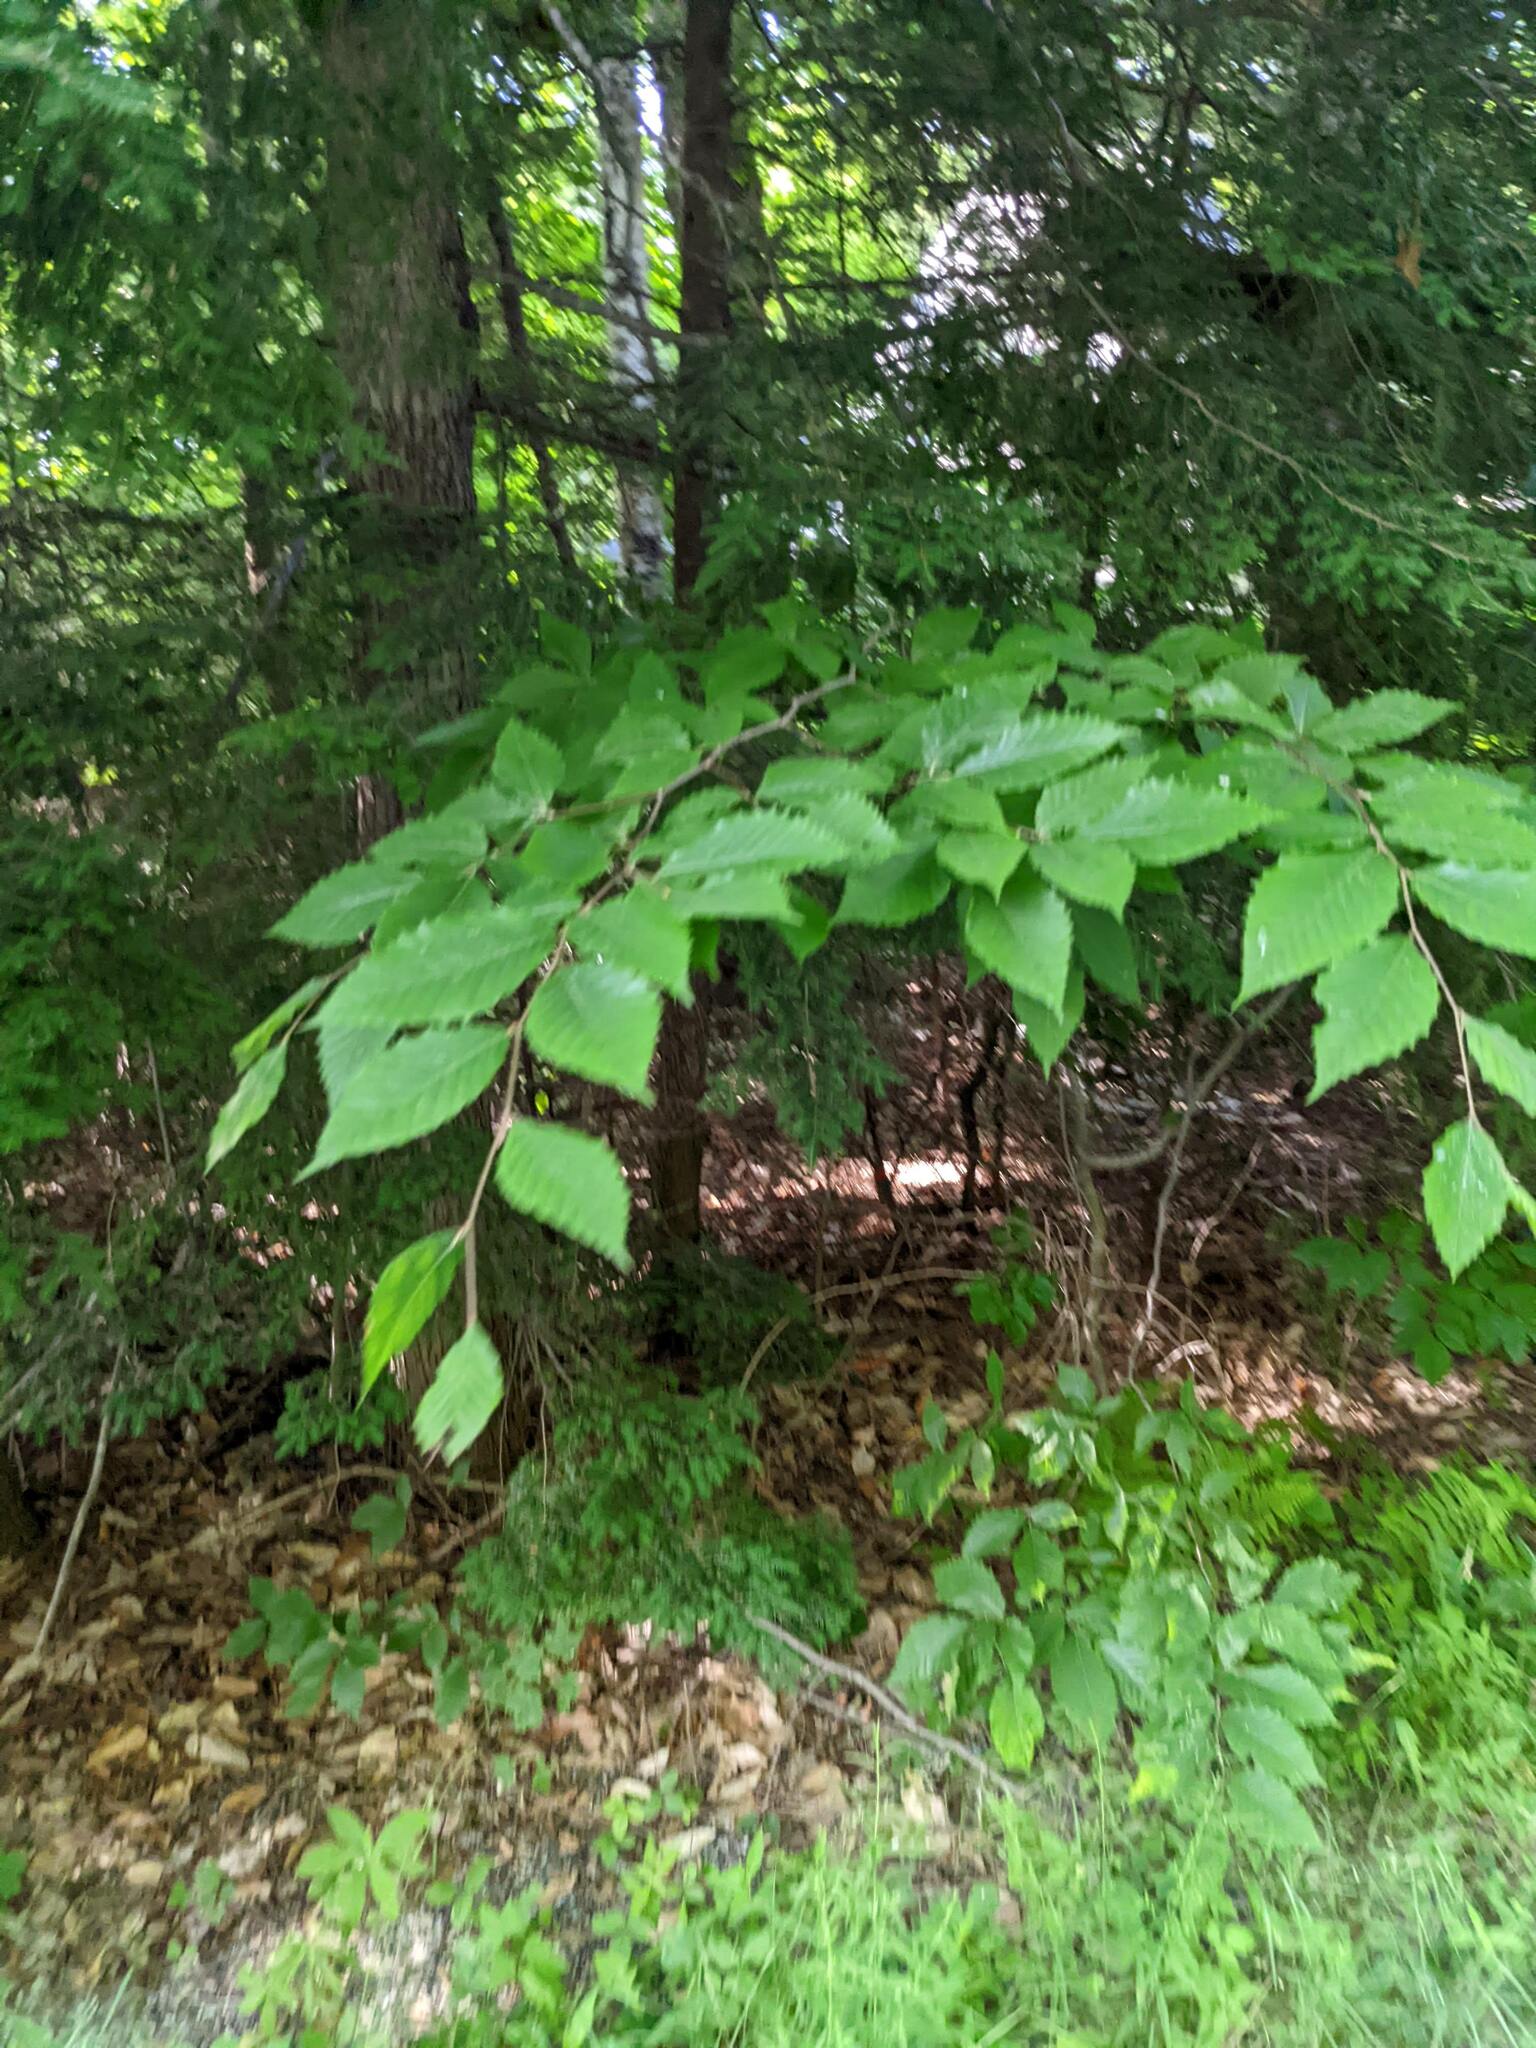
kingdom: Plantae
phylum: Tracheophyta
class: Magnoliopsida
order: Fagales
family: Fagaceae
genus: Fagus
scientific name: Fagus grandifolia
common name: American beech
